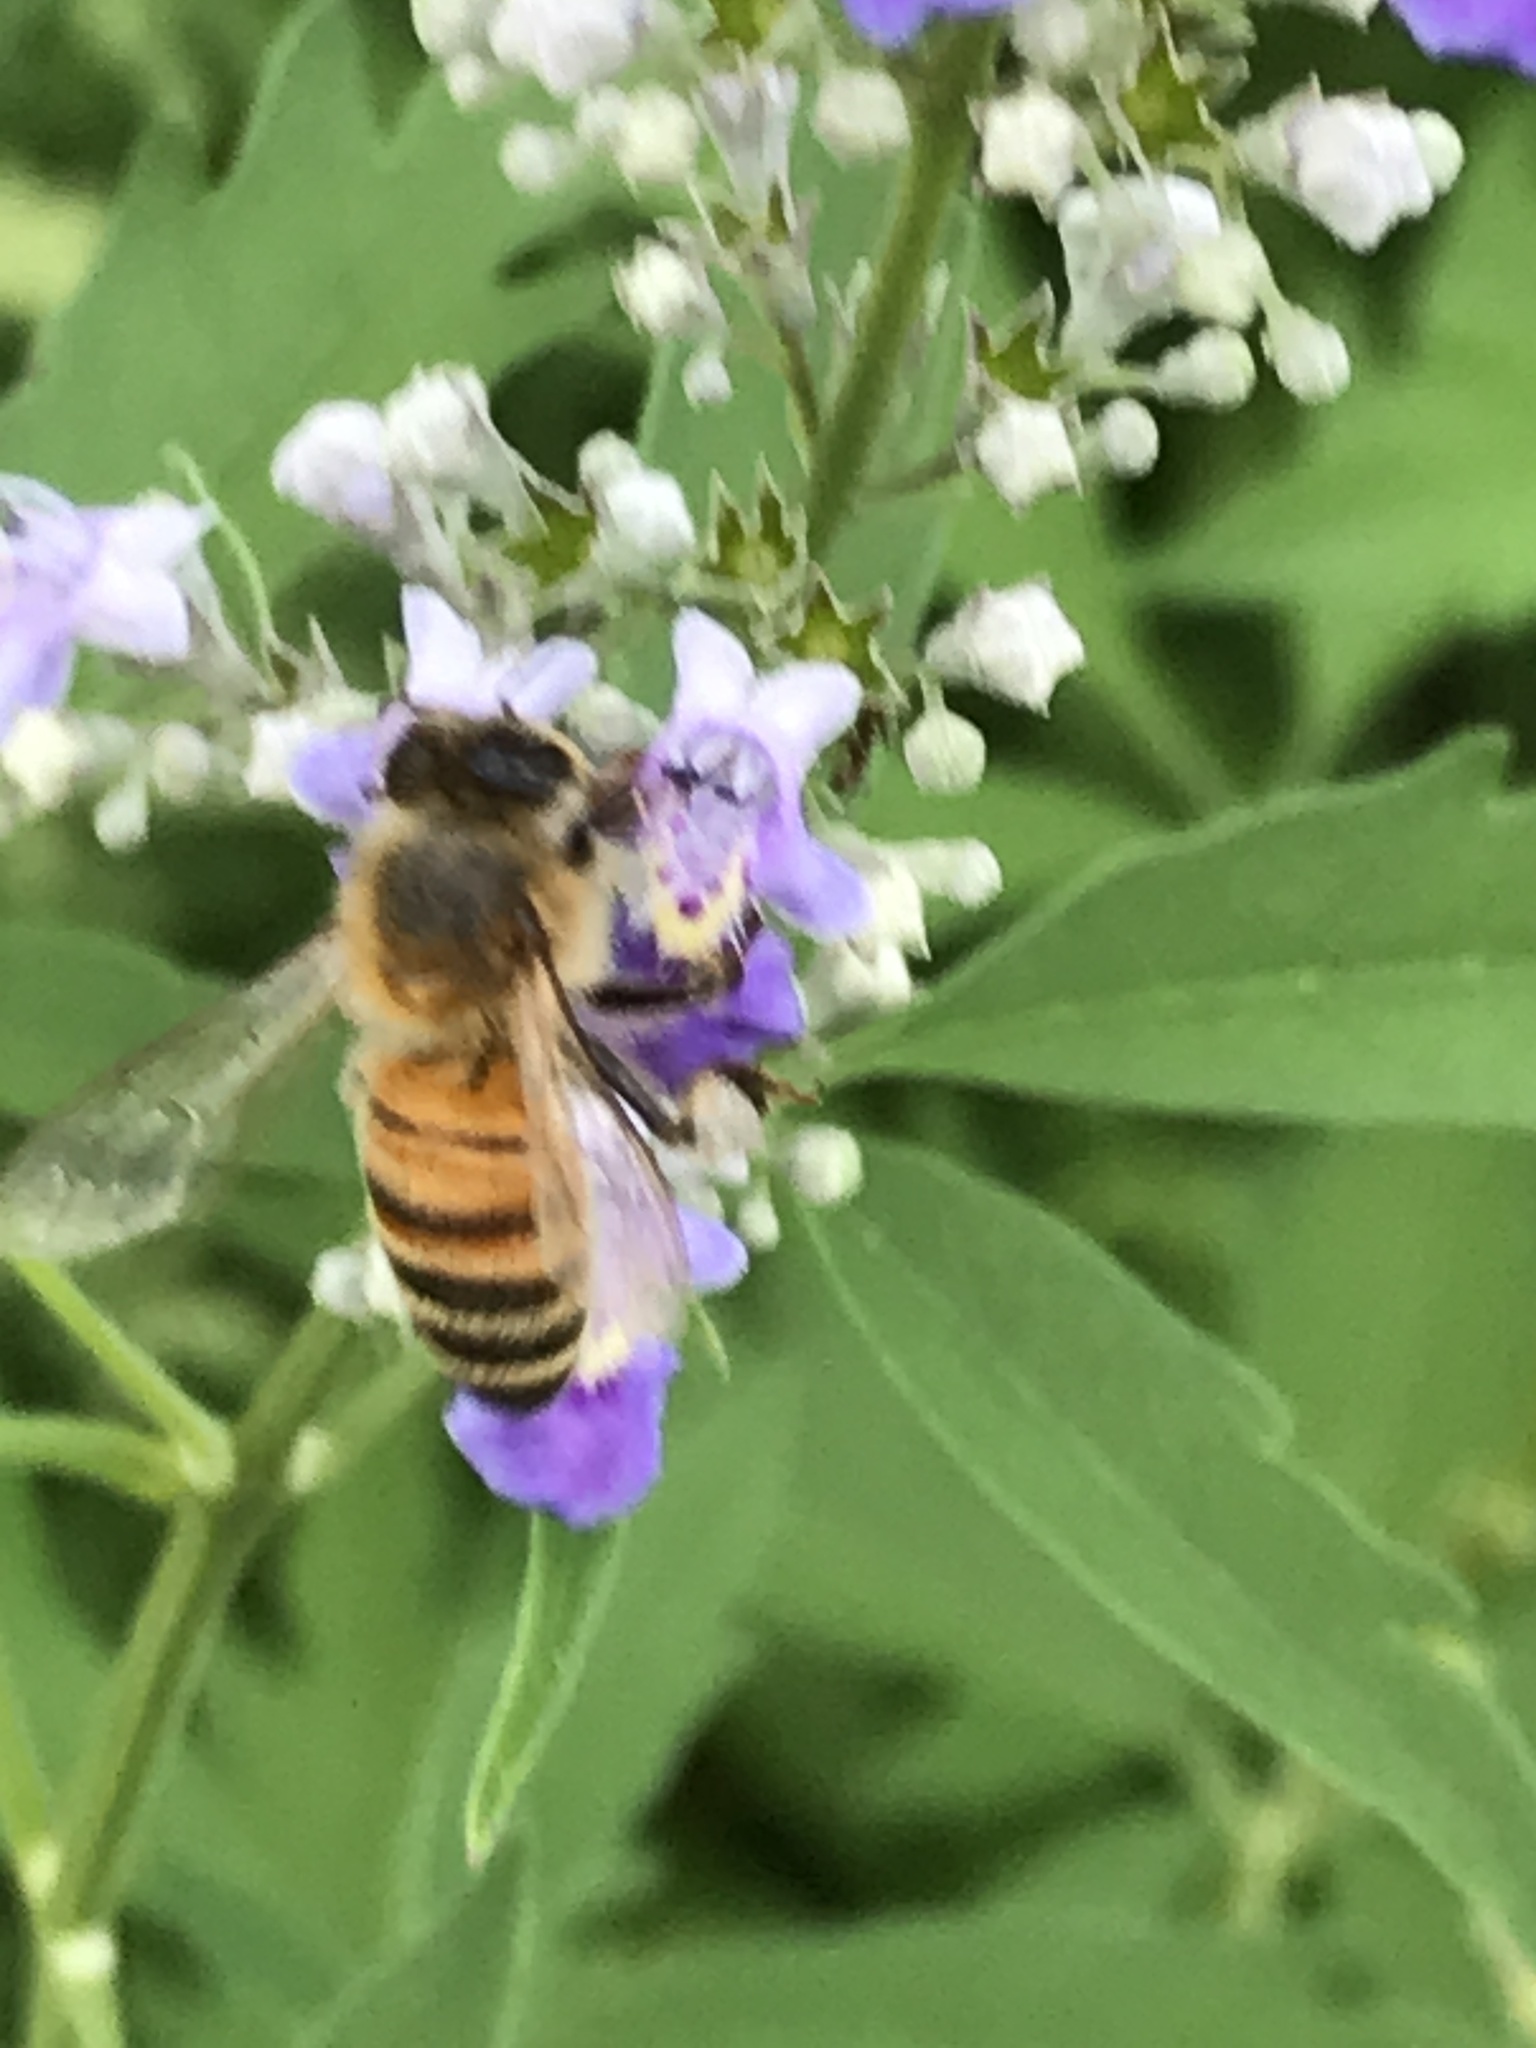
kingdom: Animalia
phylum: Arthropoda
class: Insecta
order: Hymenoptera
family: Apidae
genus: Apis
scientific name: Apis mellifera
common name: Honey bee
